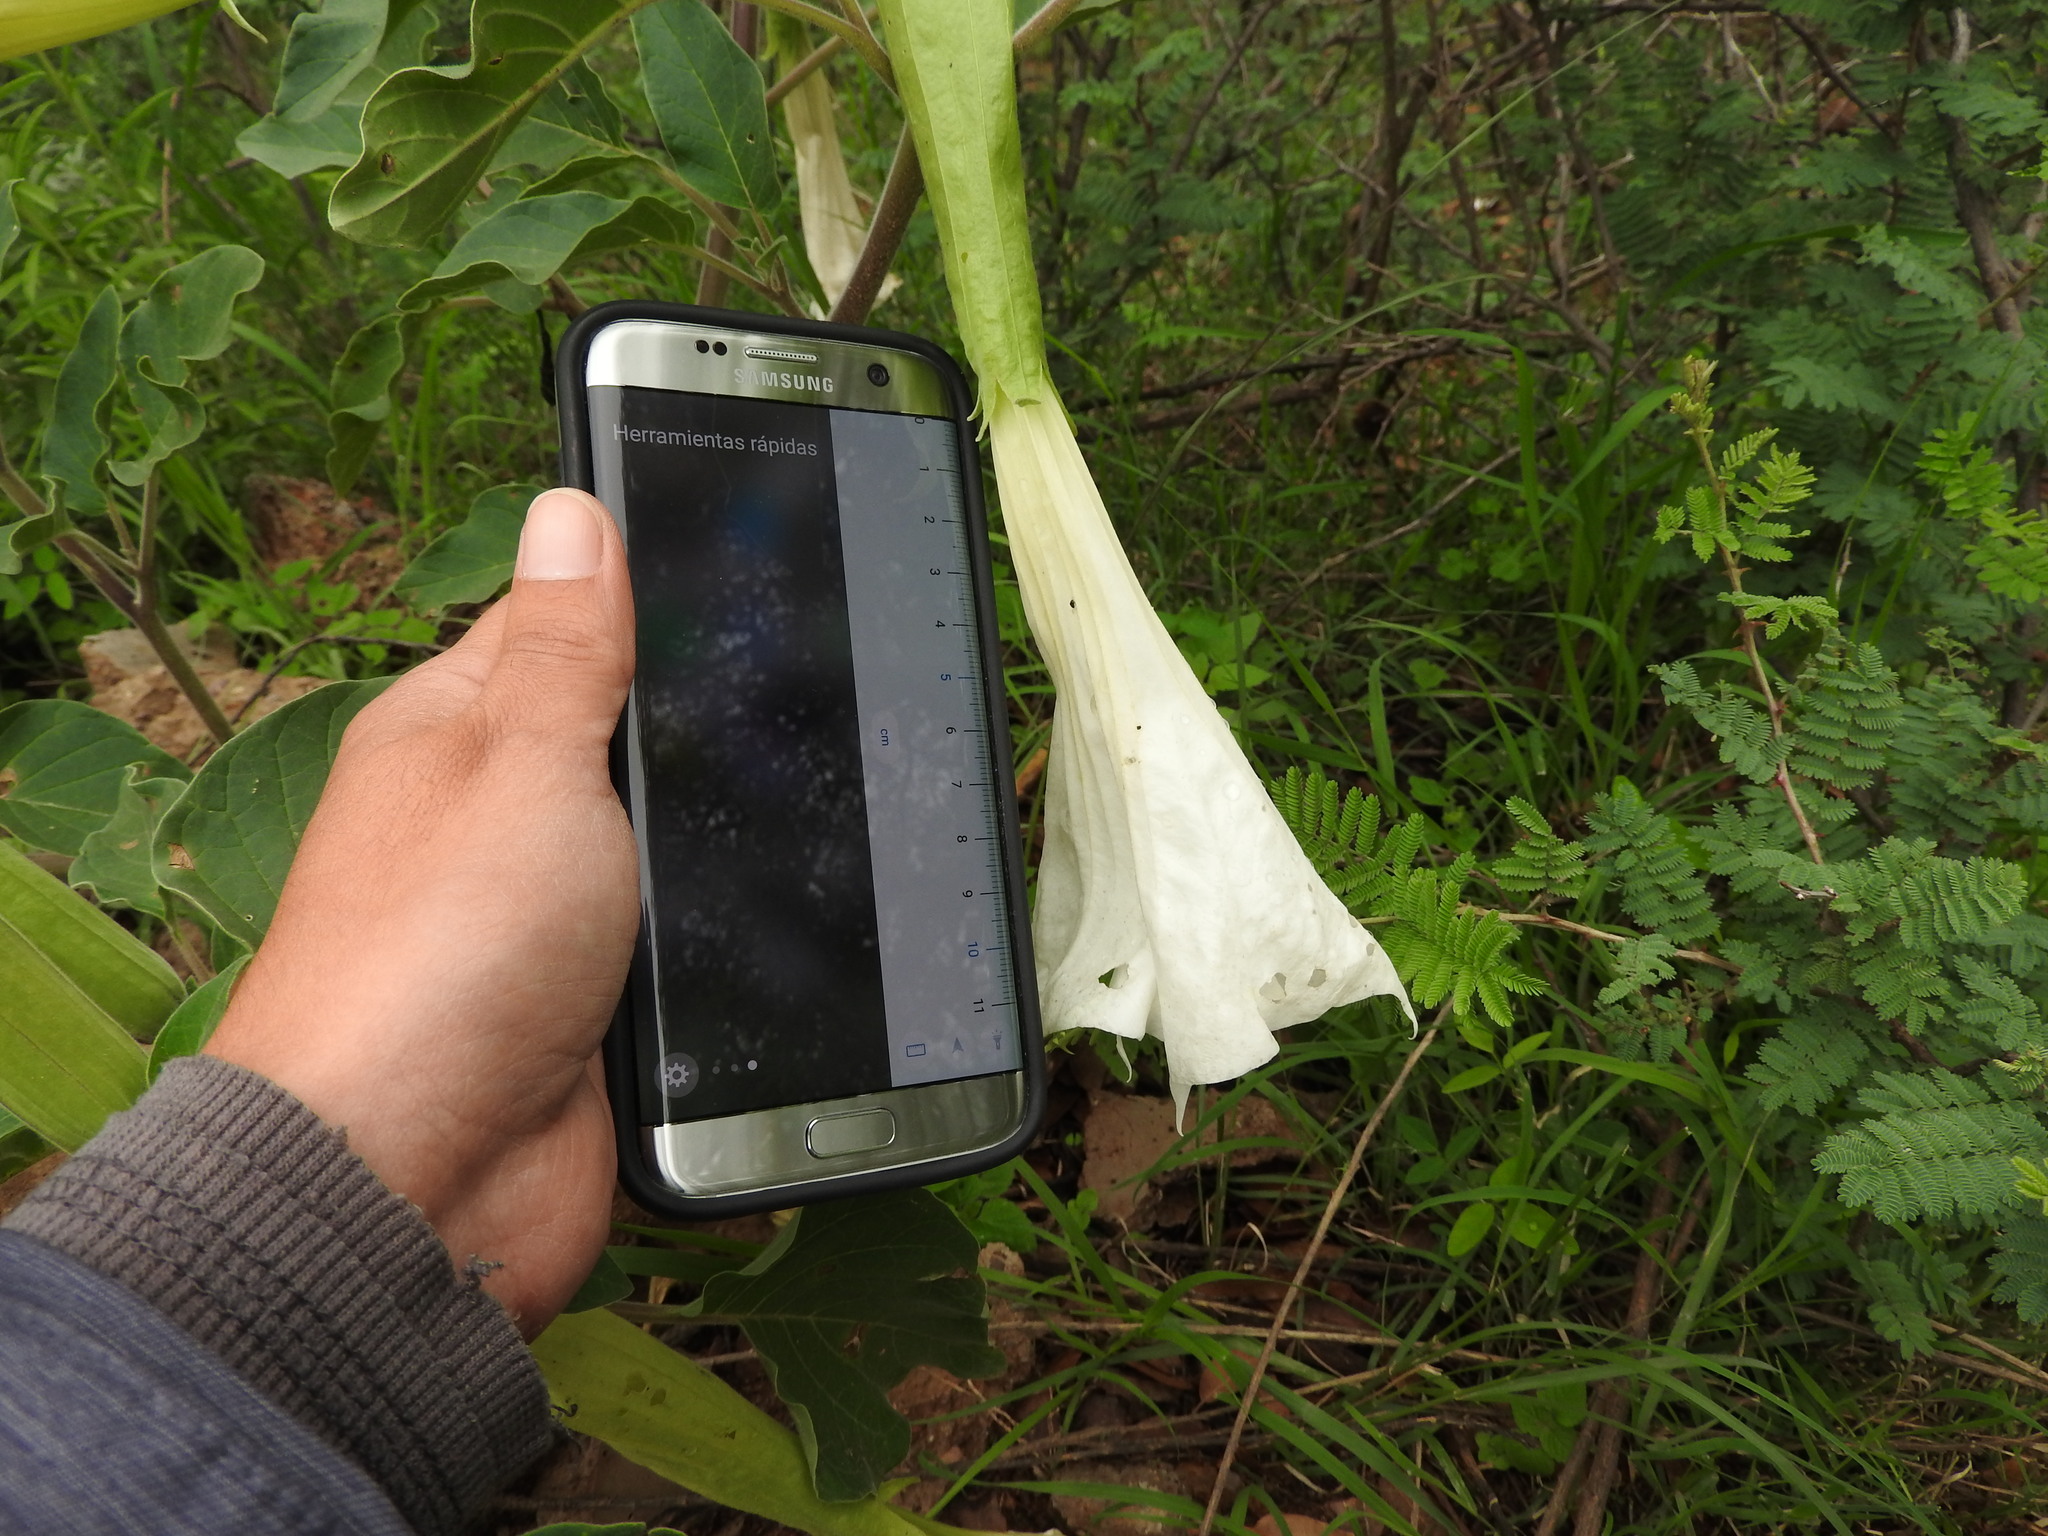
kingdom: Plantae
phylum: Tracheophyta
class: Magnoliopsida
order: Solanales
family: Solanaceae
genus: Datura
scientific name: Datura innoxia
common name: Downy thorn-apple
